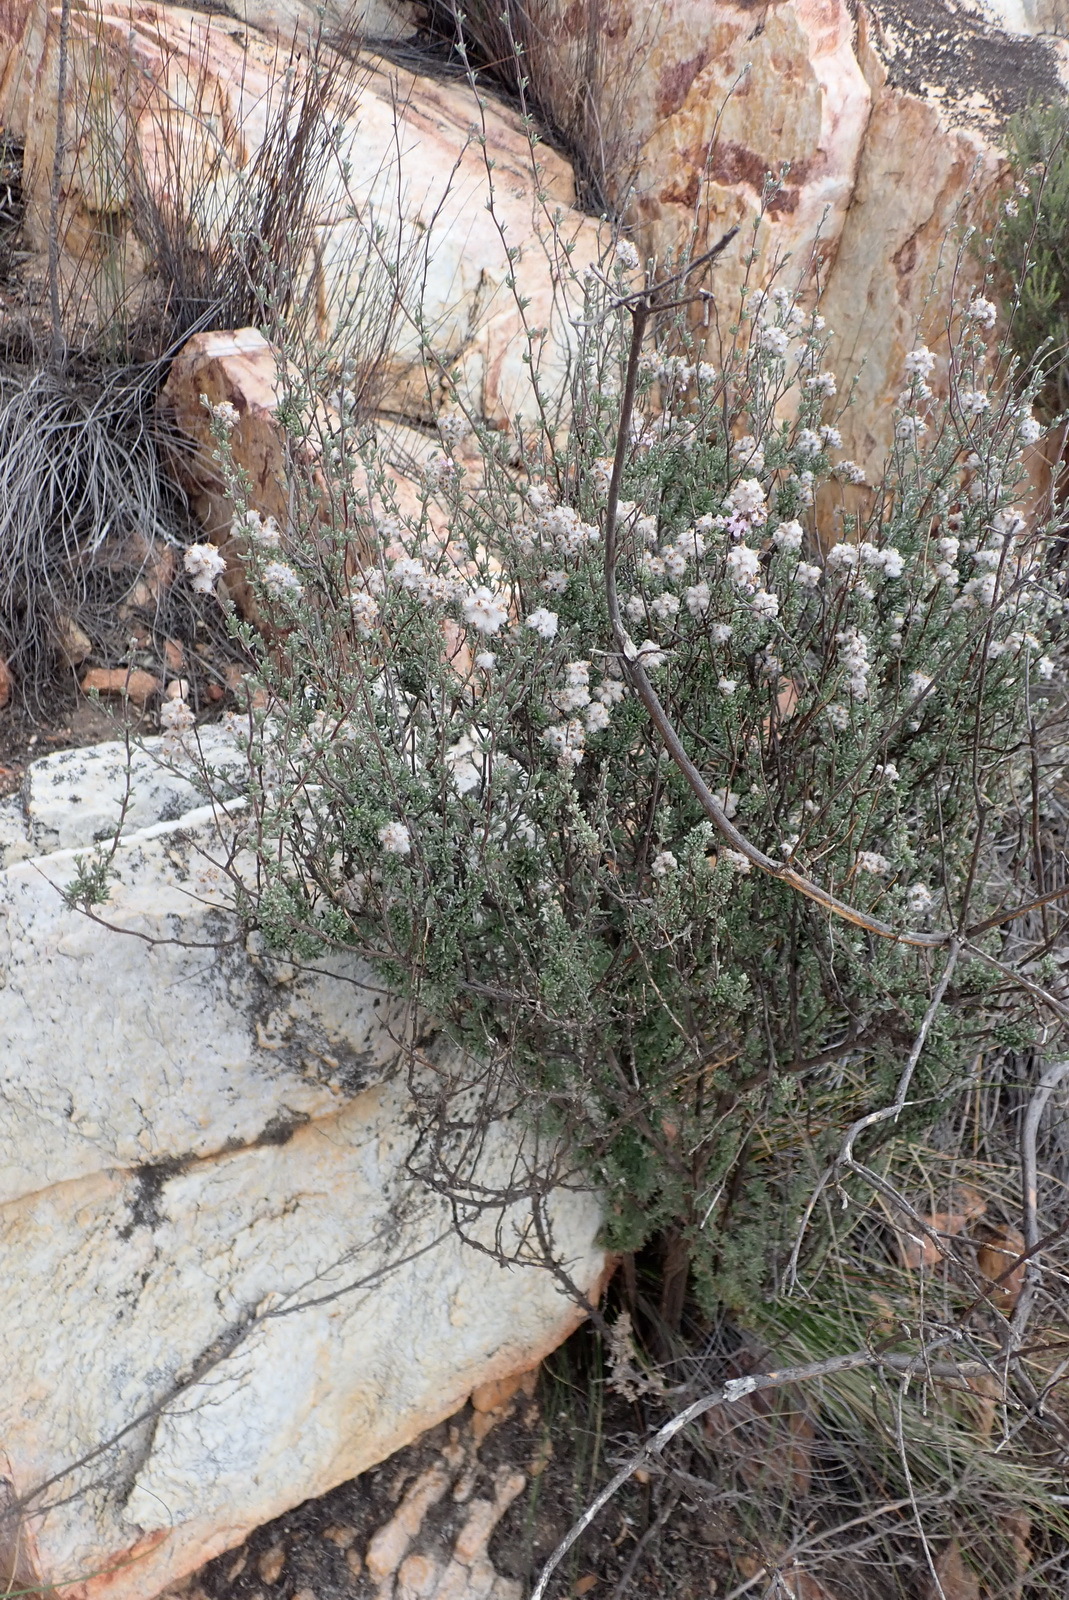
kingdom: Plantae
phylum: Tracheophyta
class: Magnoliopsida
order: Asterales
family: Asteraceae
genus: Eriocephalus
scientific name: Eriocephalus africanus
